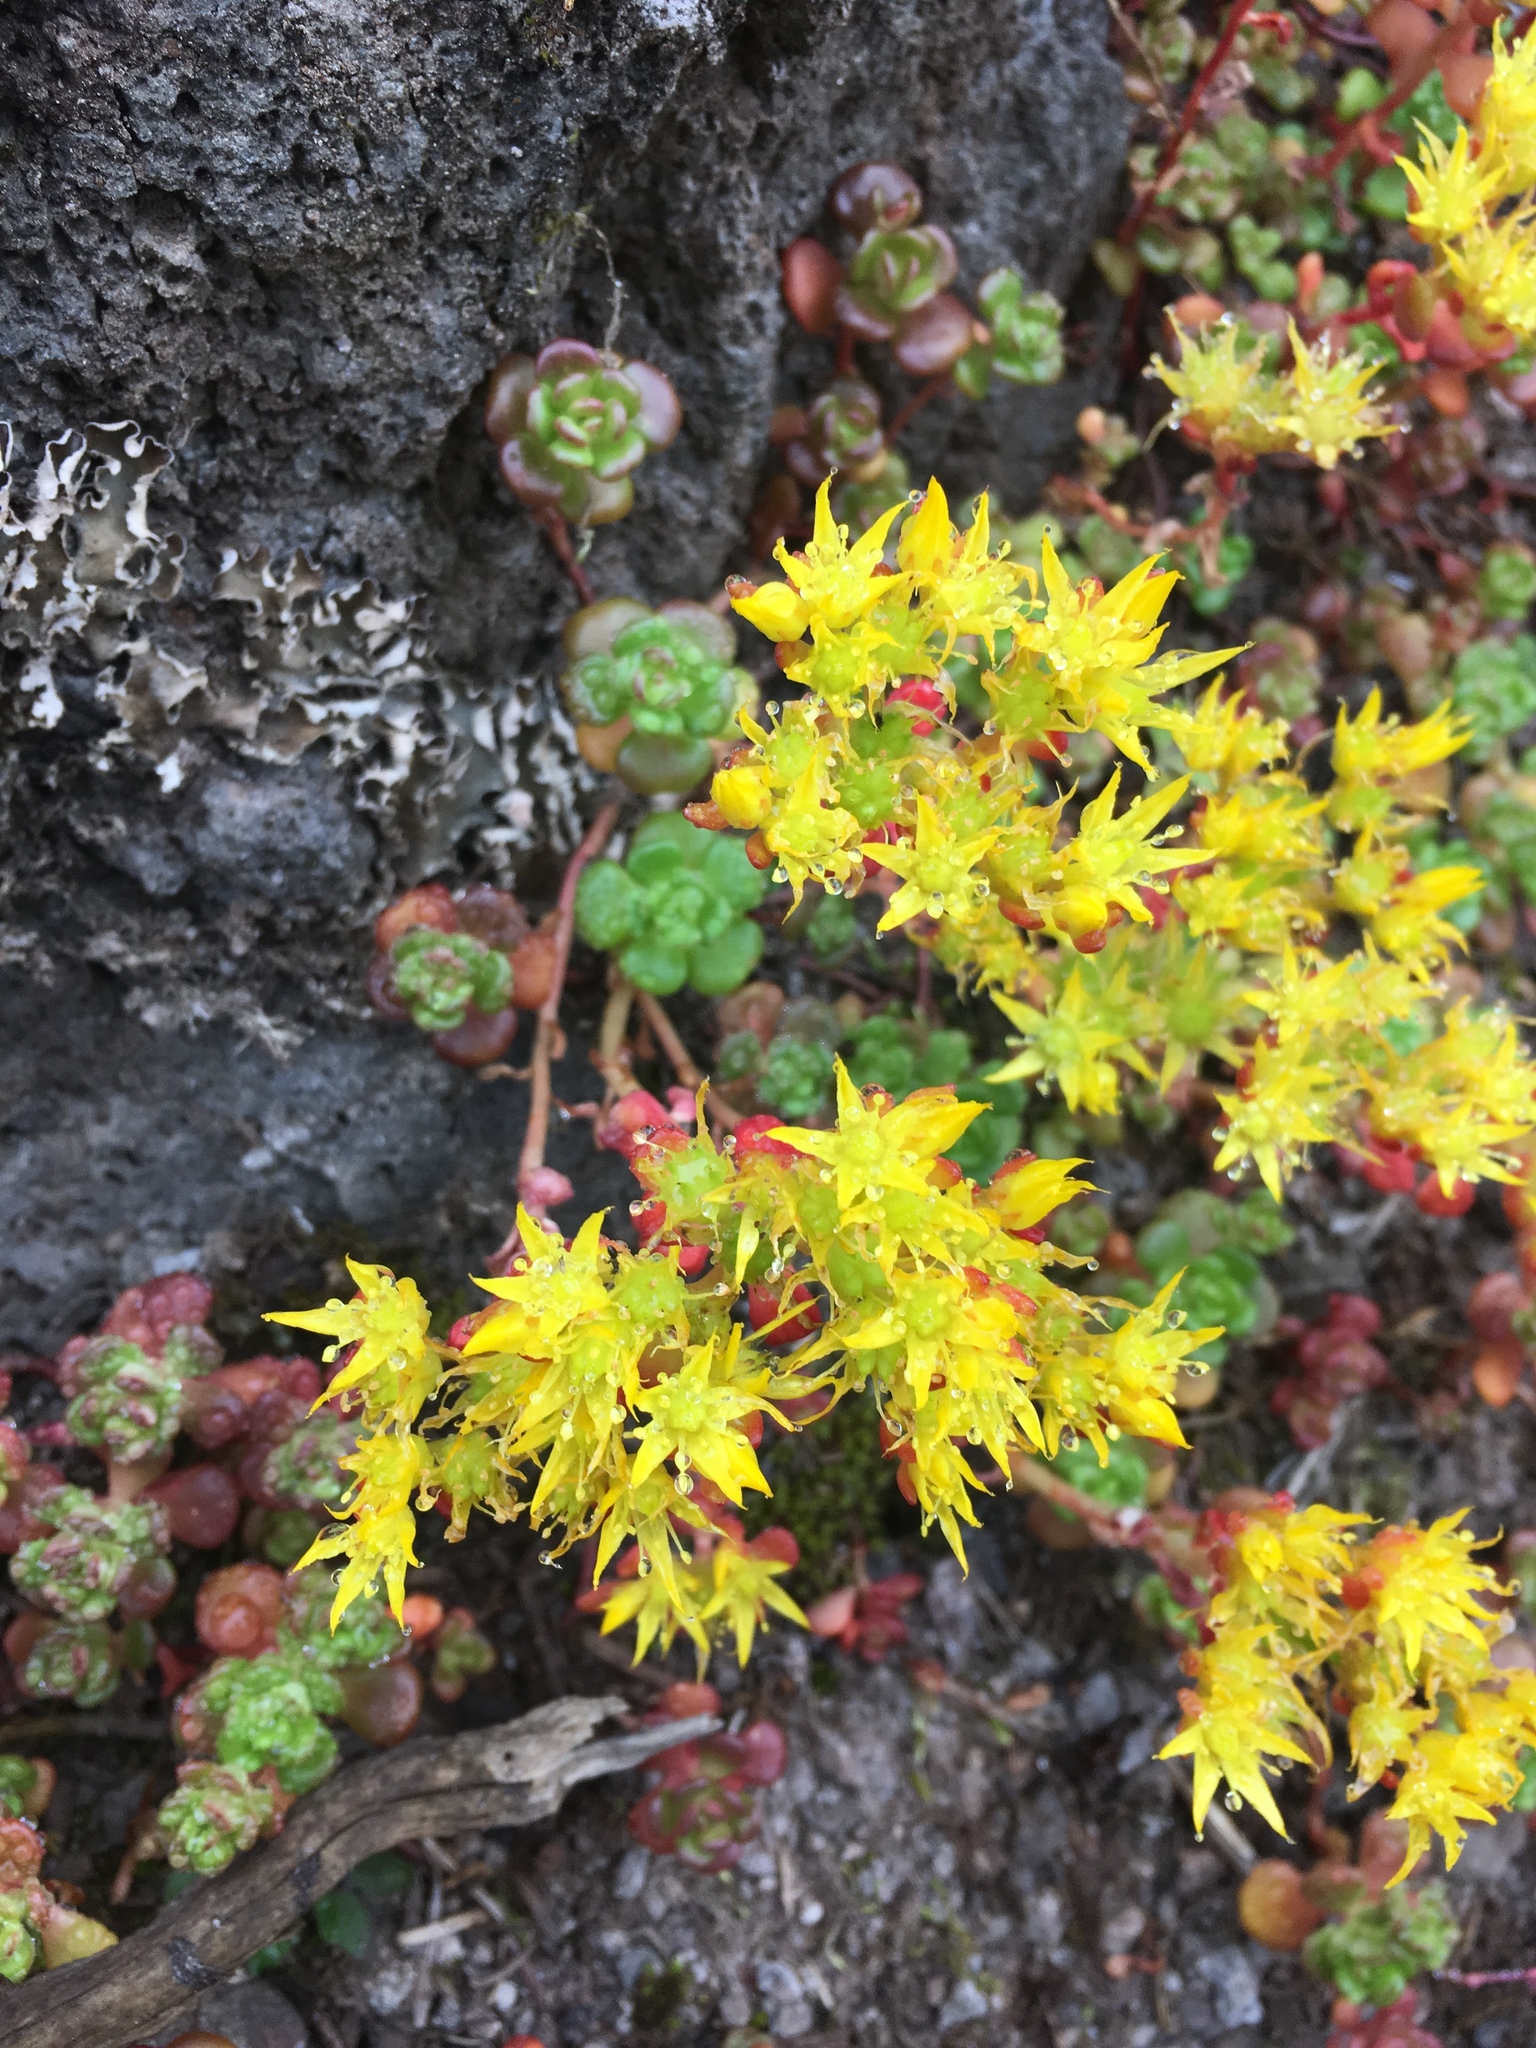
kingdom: Plantae
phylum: Tracheophyta
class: Magnoliopsida
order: Saxifragales
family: Crassulaceae
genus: Sedum
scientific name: Sedum oreganum
